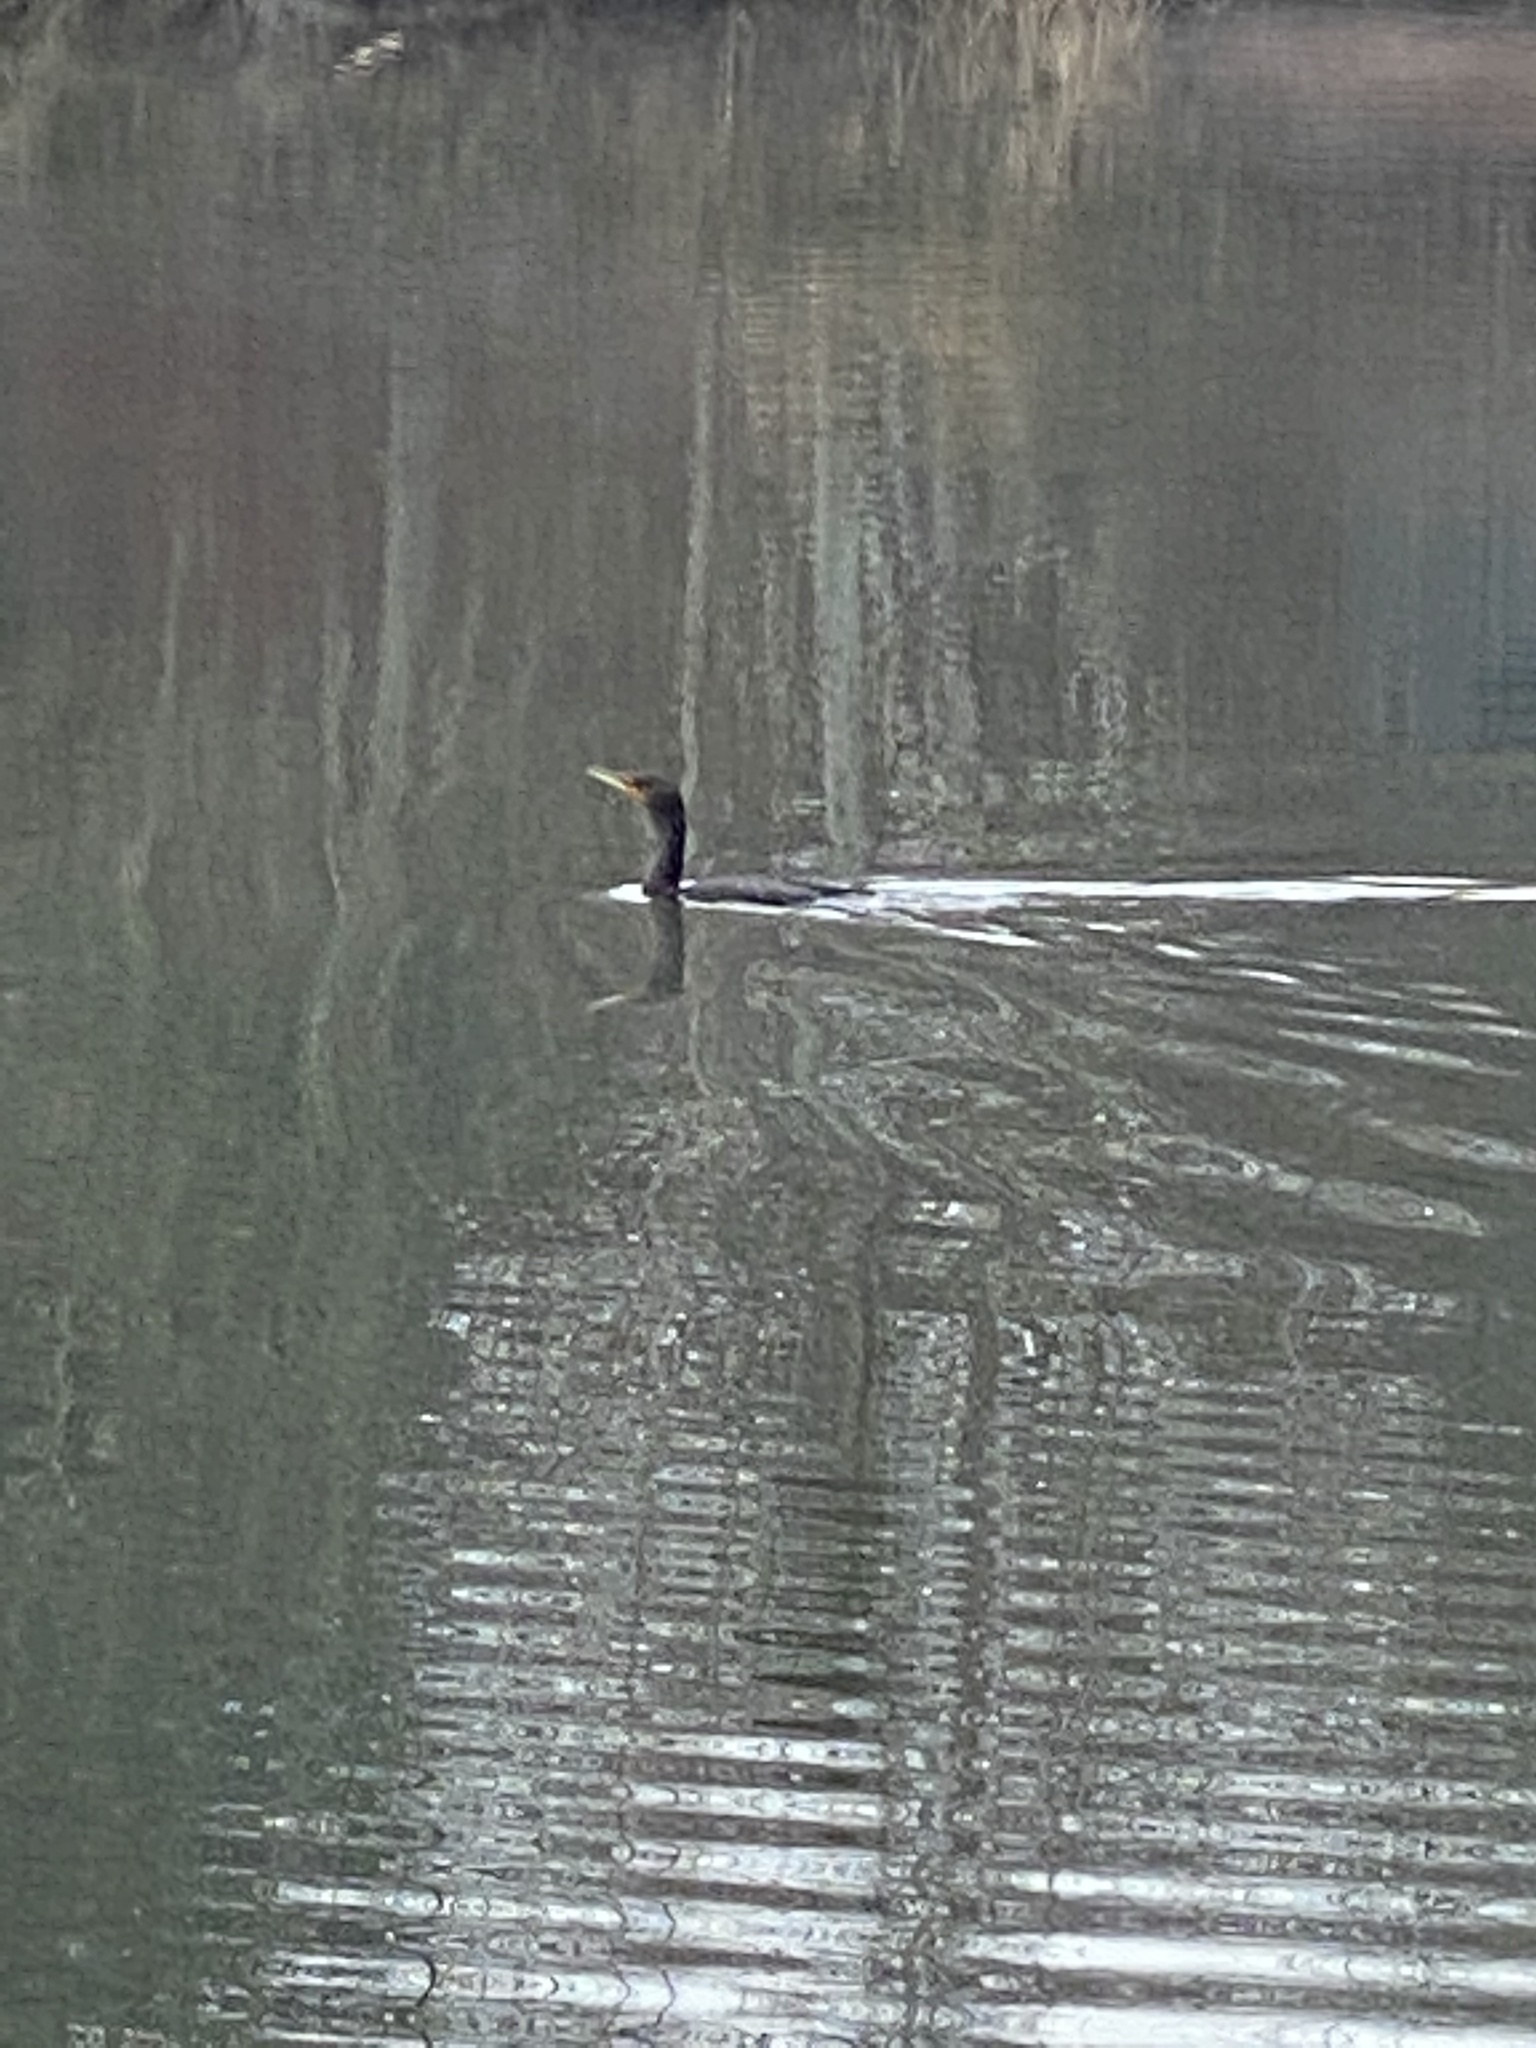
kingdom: Animalia
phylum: Chordata
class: Aves
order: Suliformes
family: Phalacrocoracidae
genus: Phalacrocorax
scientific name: Phalacrocorax auritus
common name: Double-crested cormorant
